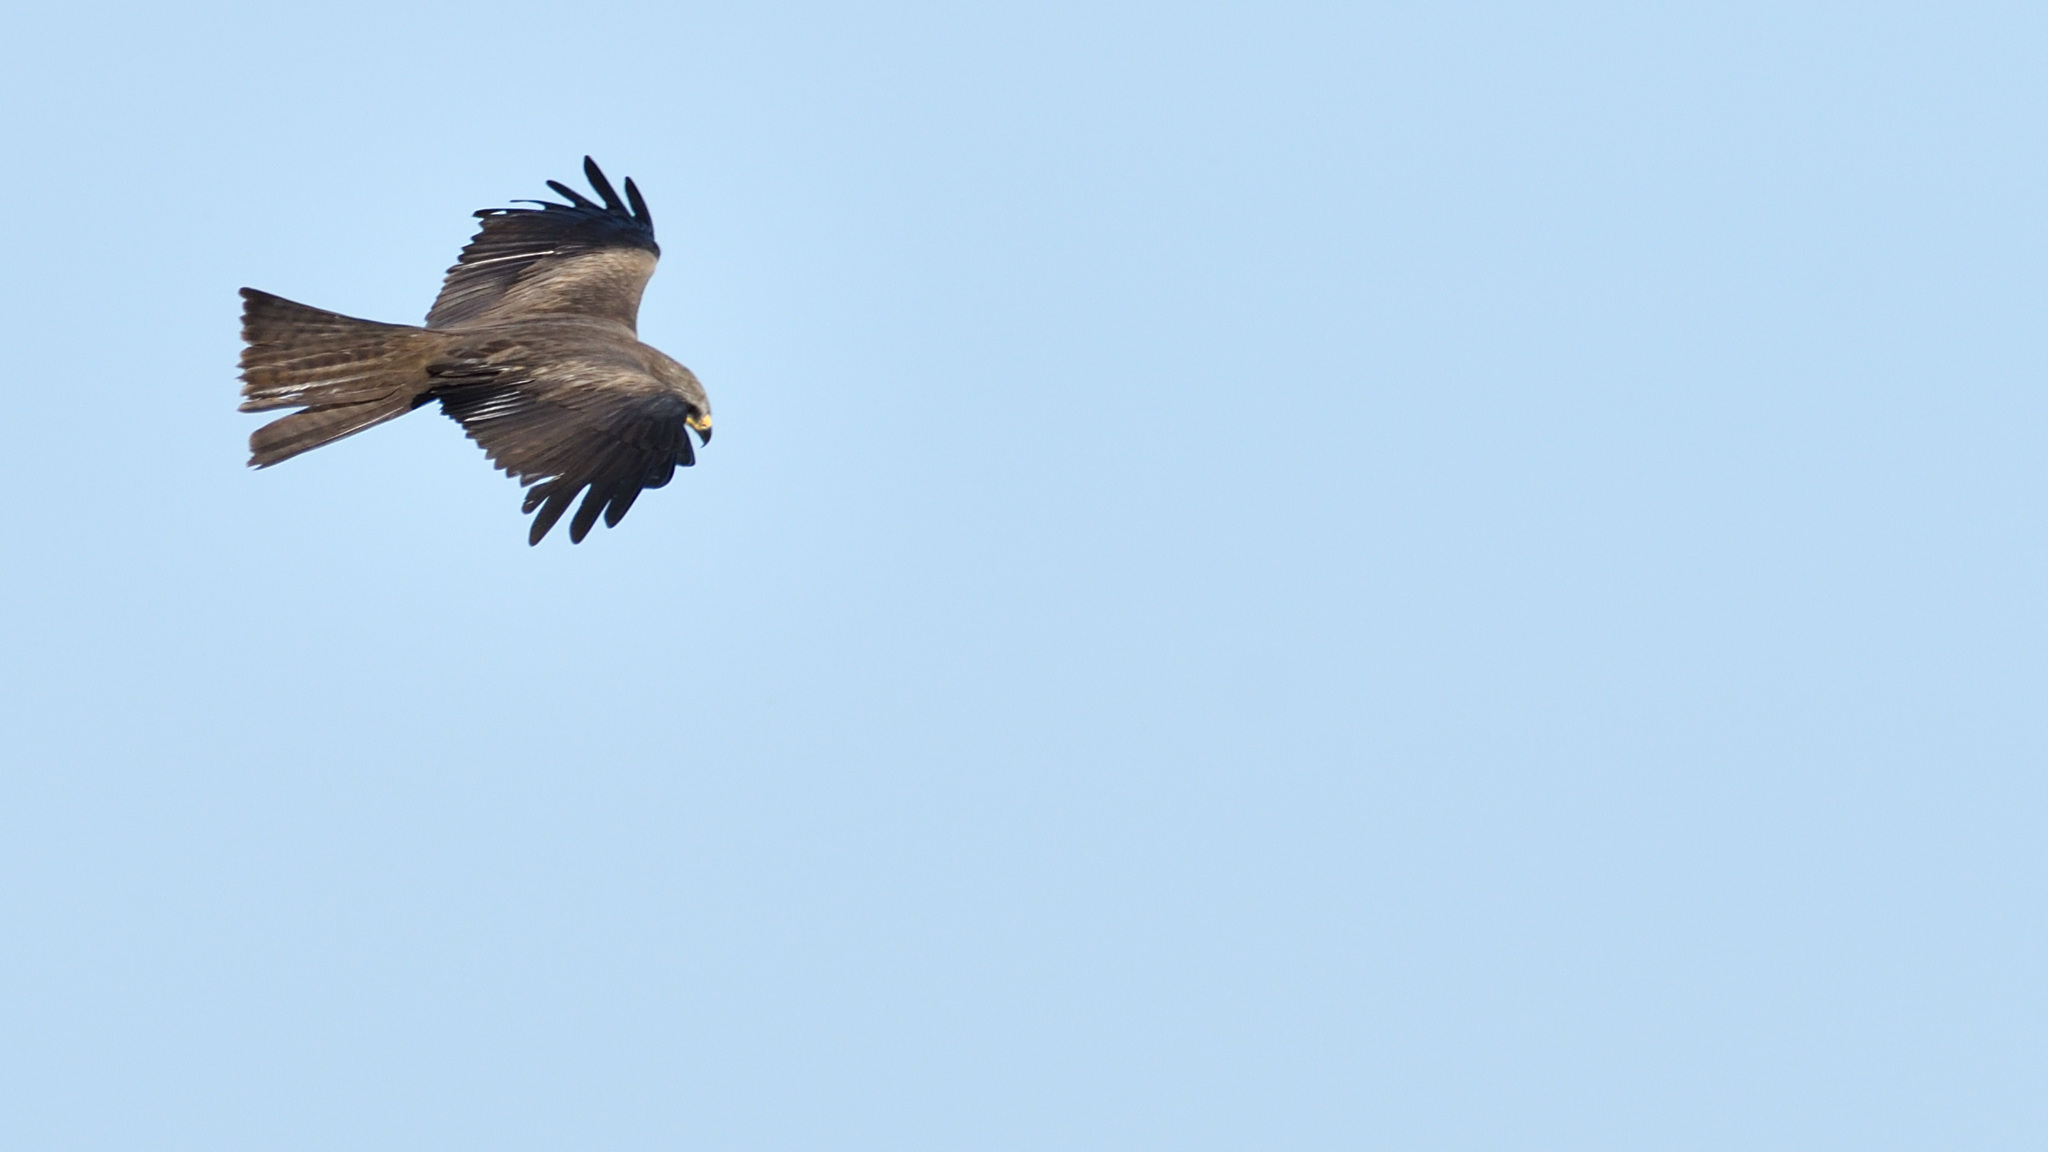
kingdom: Animalia
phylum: Chordata
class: Aves
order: Accipitriformes
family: Accipitridae
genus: Milvus
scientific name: Milvus migrans
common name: Black kite
